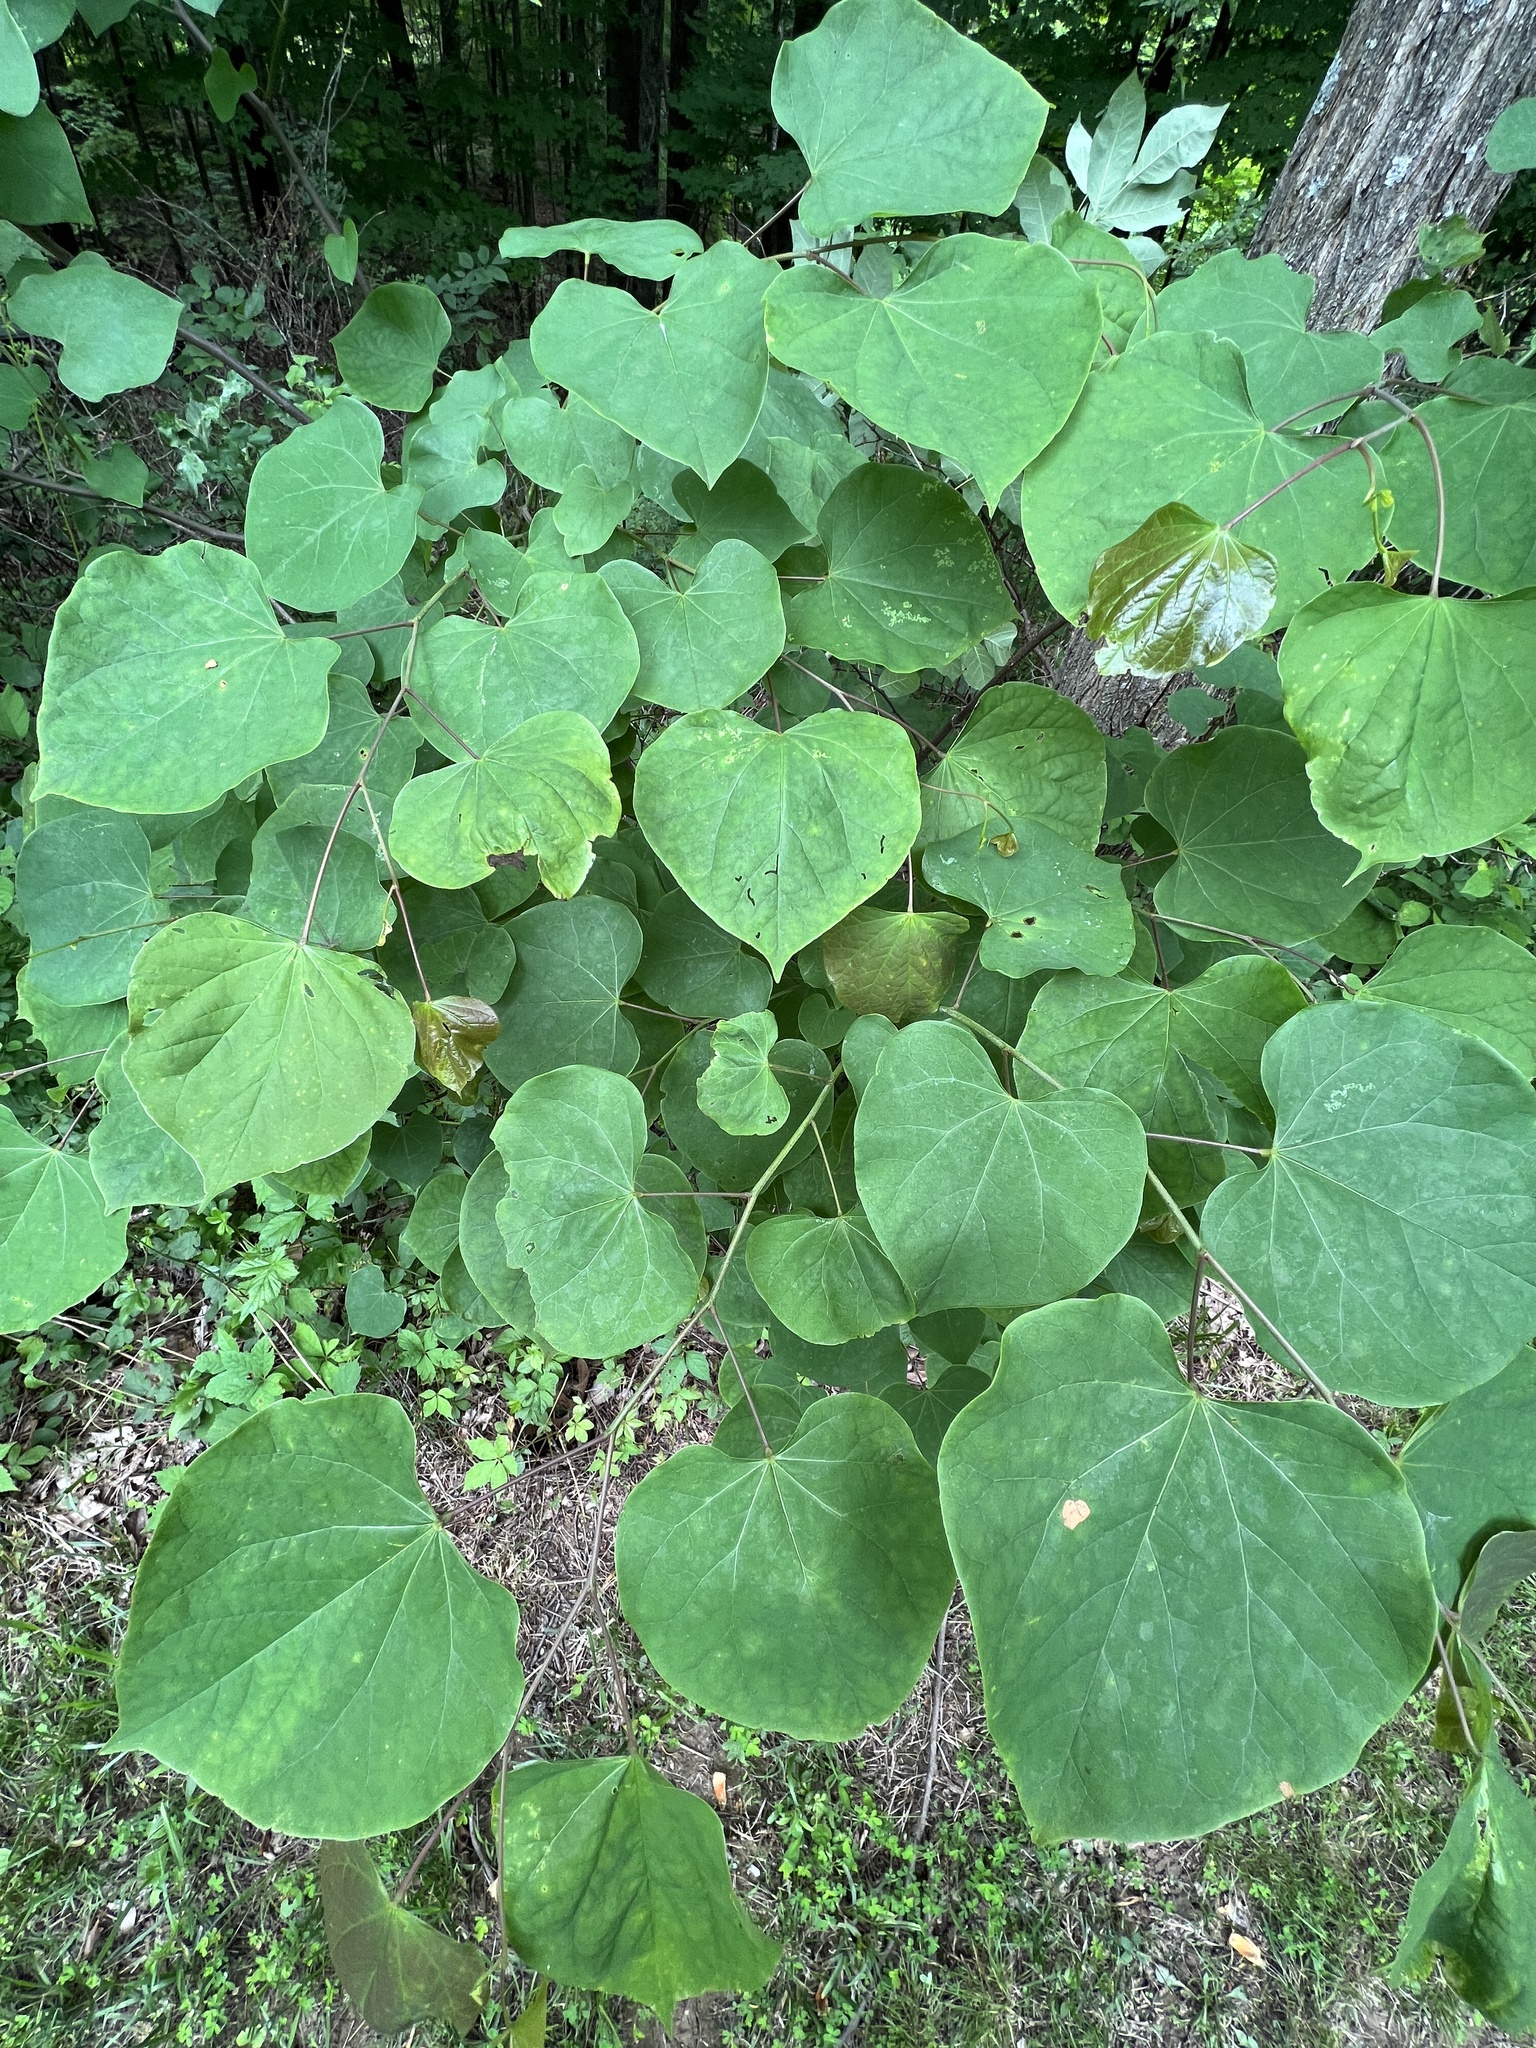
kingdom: Plantae
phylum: Tracheophyta
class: Magnoliopsida
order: Fabales
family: Fabaceae
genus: Cercis
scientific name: Cercis canadensis
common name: Eastern redbud
